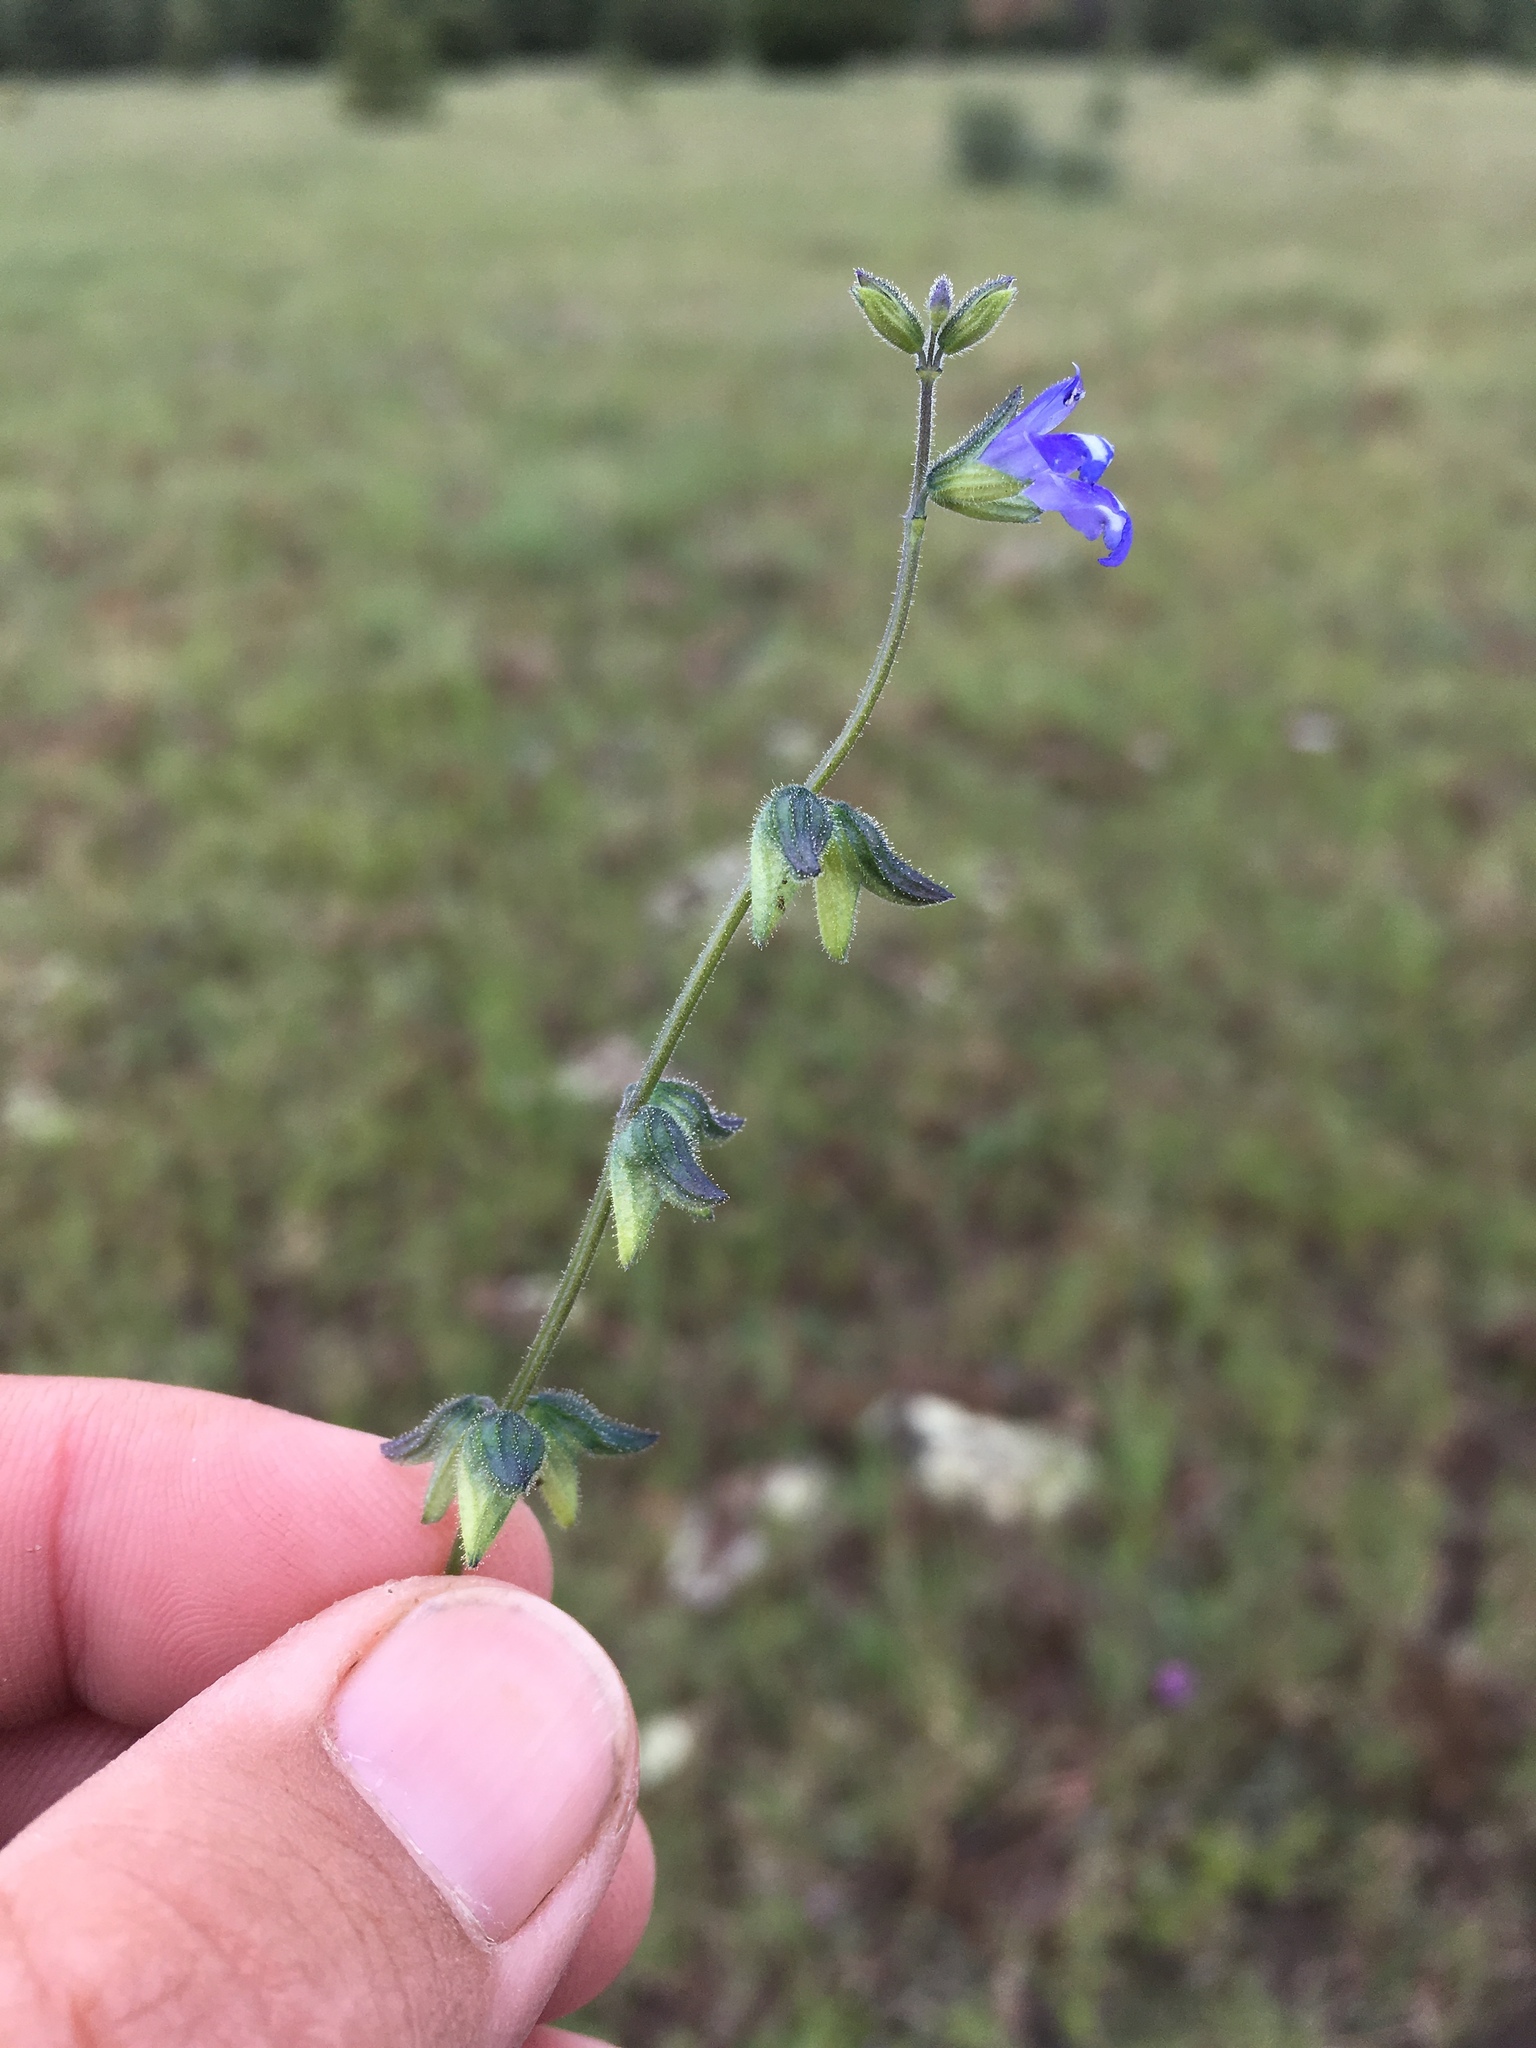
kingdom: Plantae
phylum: Tracheophyta
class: Magnoliopsida
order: Lamiales
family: Lamiaceae
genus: Salvia
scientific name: Salvia subincisa
